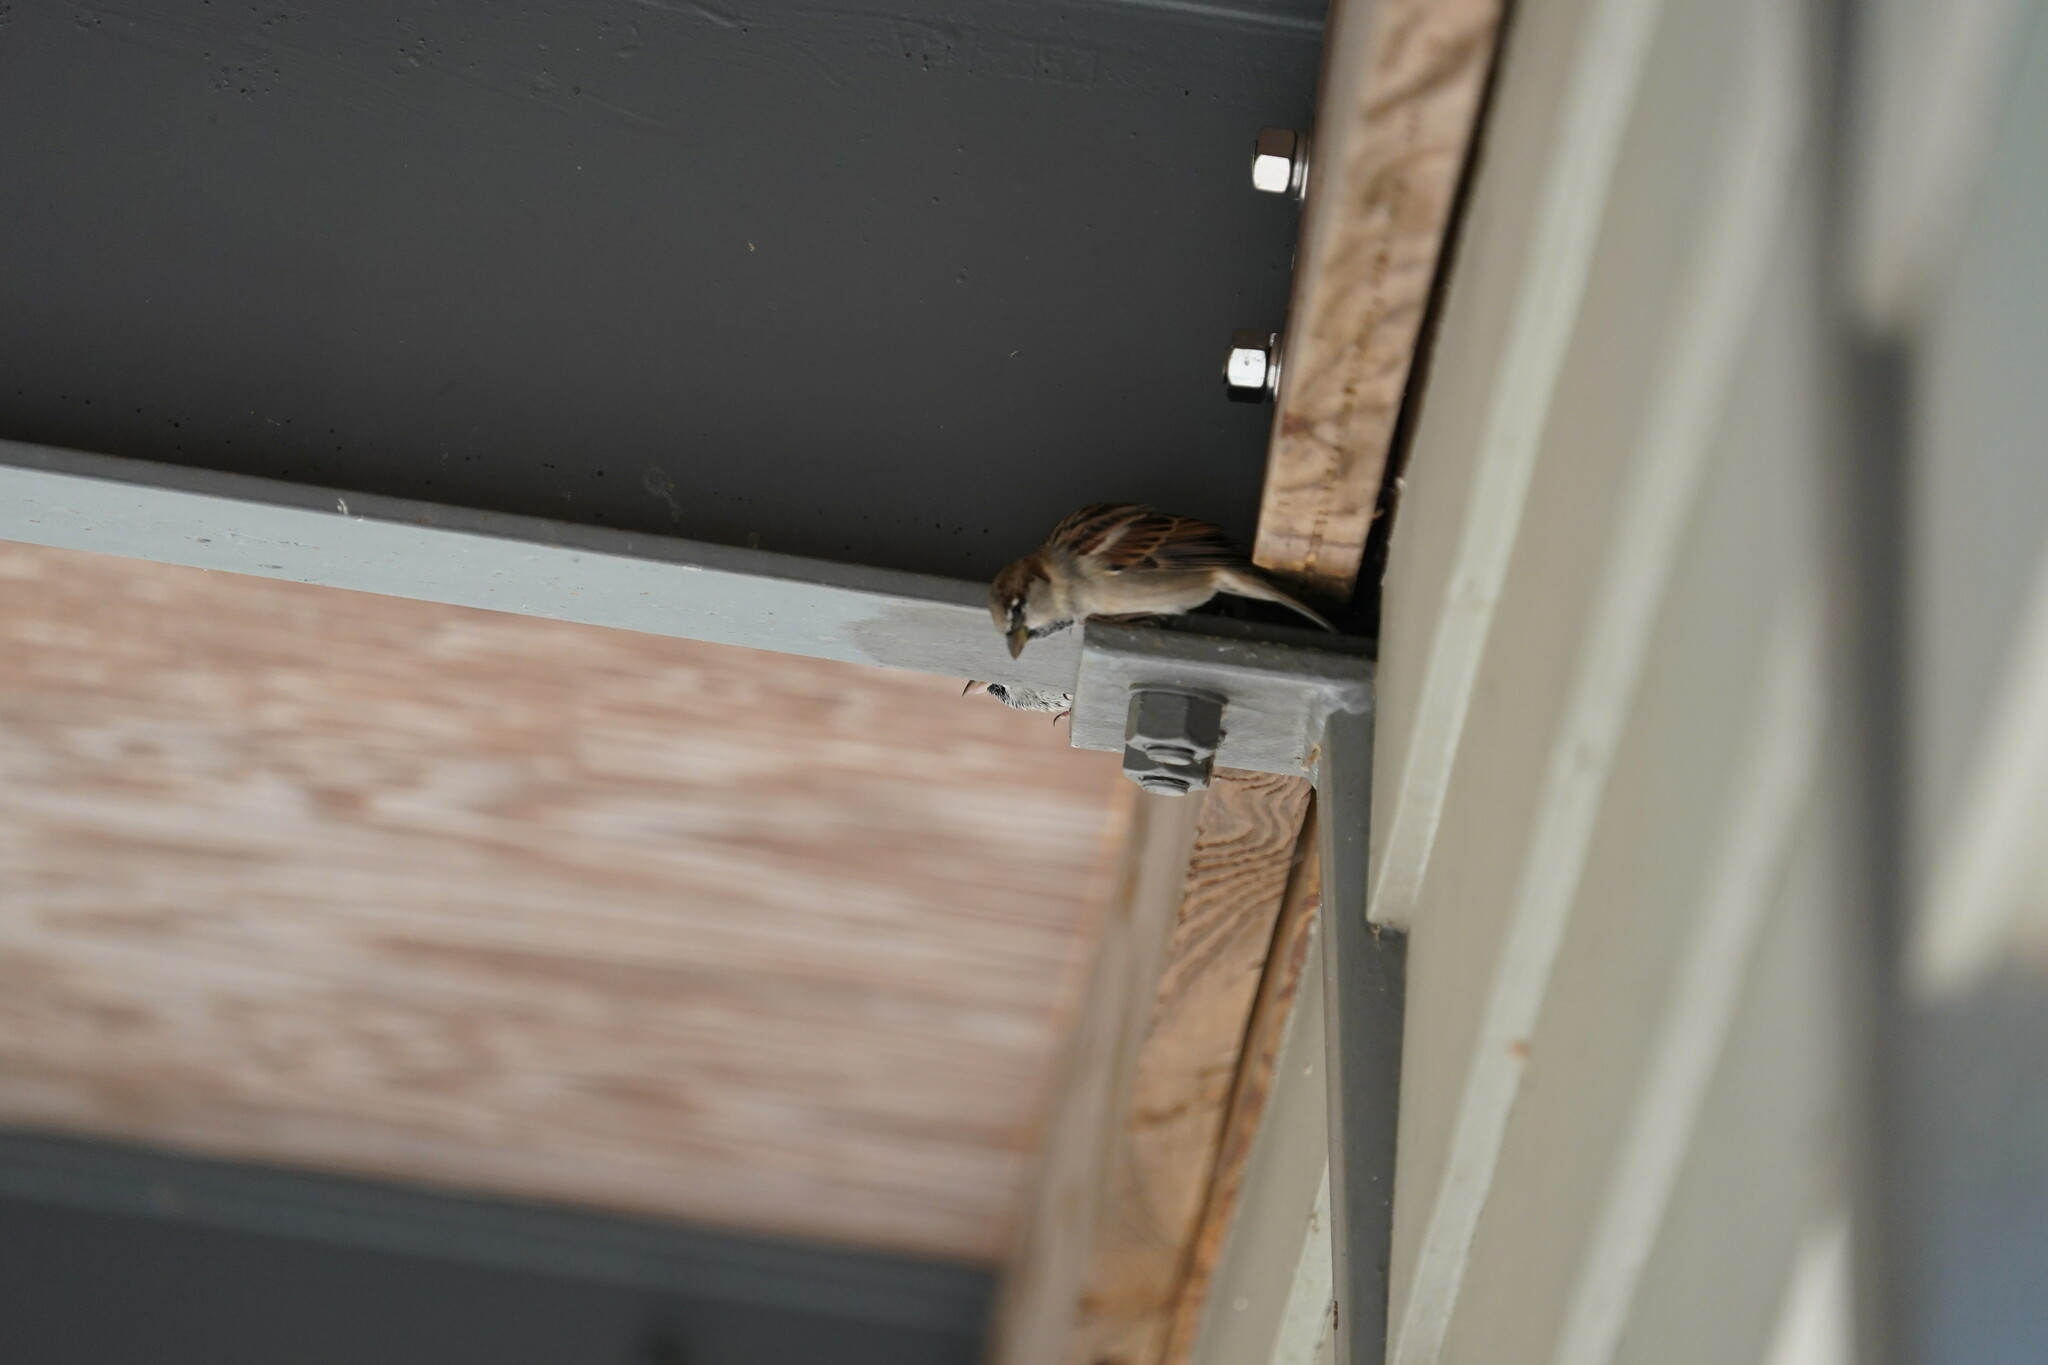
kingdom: Animalia
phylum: Chordata
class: Aves
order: Passeriformes
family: Passeridae
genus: Passer
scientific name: Passer domesticus
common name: House sparrow
